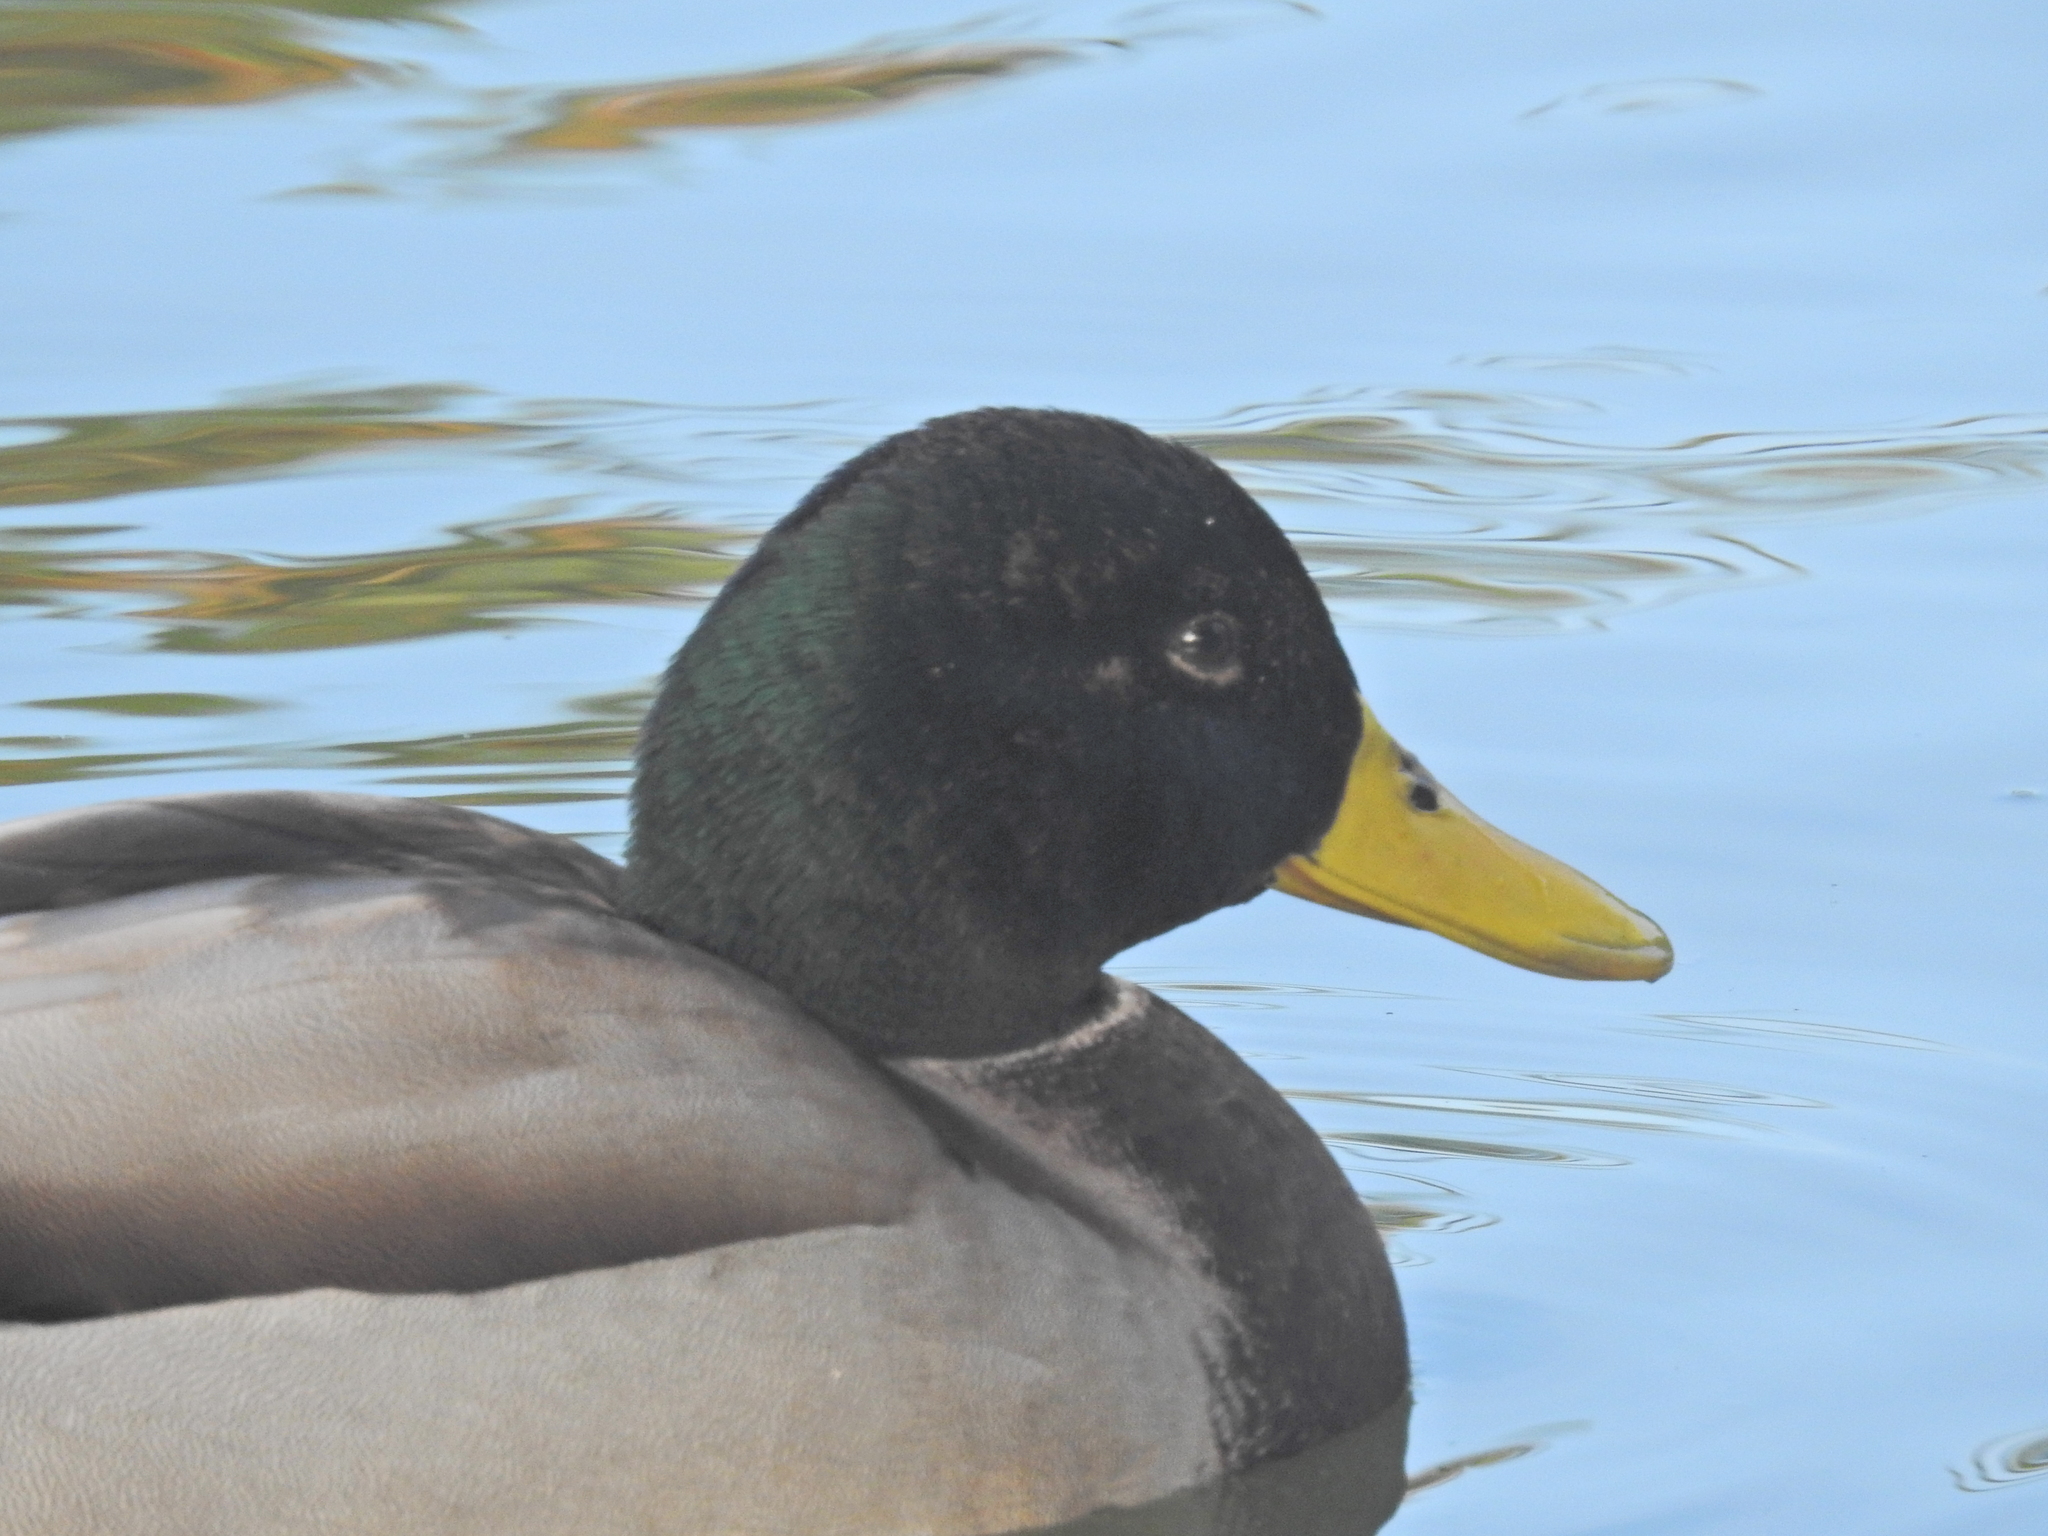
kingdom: Animalia
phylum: Chordata
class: Aves
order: Anseriformes
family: Anatidae
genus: Anas
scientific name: Anas platyrhynchos
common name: Mallard
